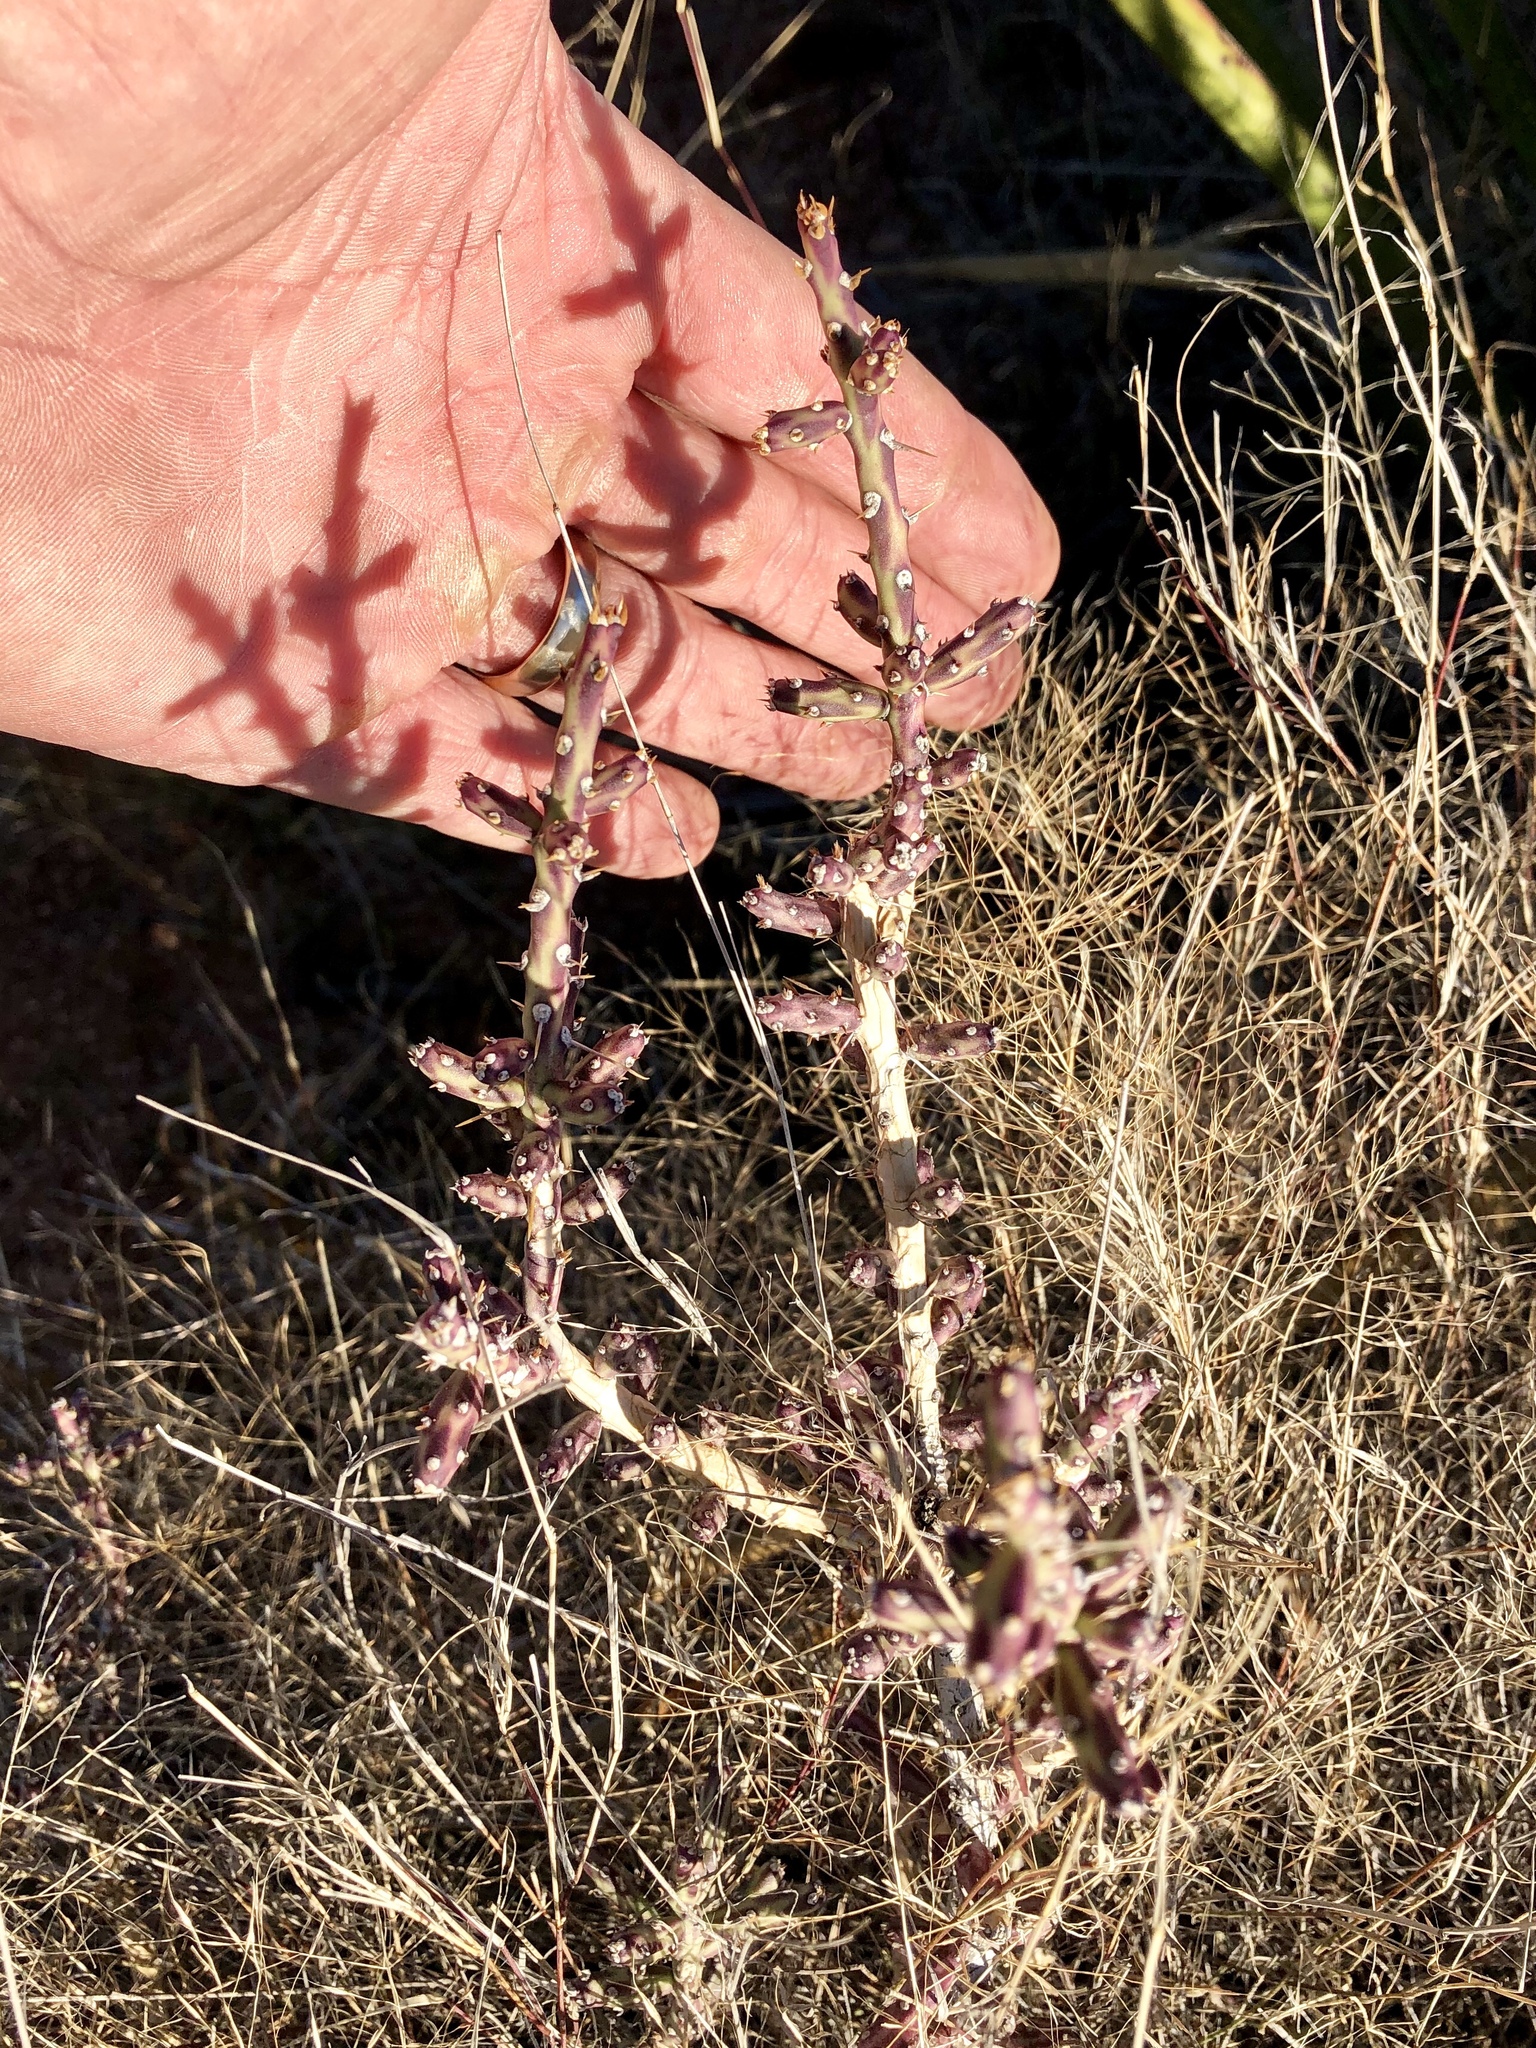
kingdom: Plantae
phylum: Tracheophyta
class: Magnoliopsida
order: Caryophyllales
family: Cactaceae
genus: Cylindropuntia
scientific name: Cylindropuntia leptocaulis
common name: Christmas cactus
